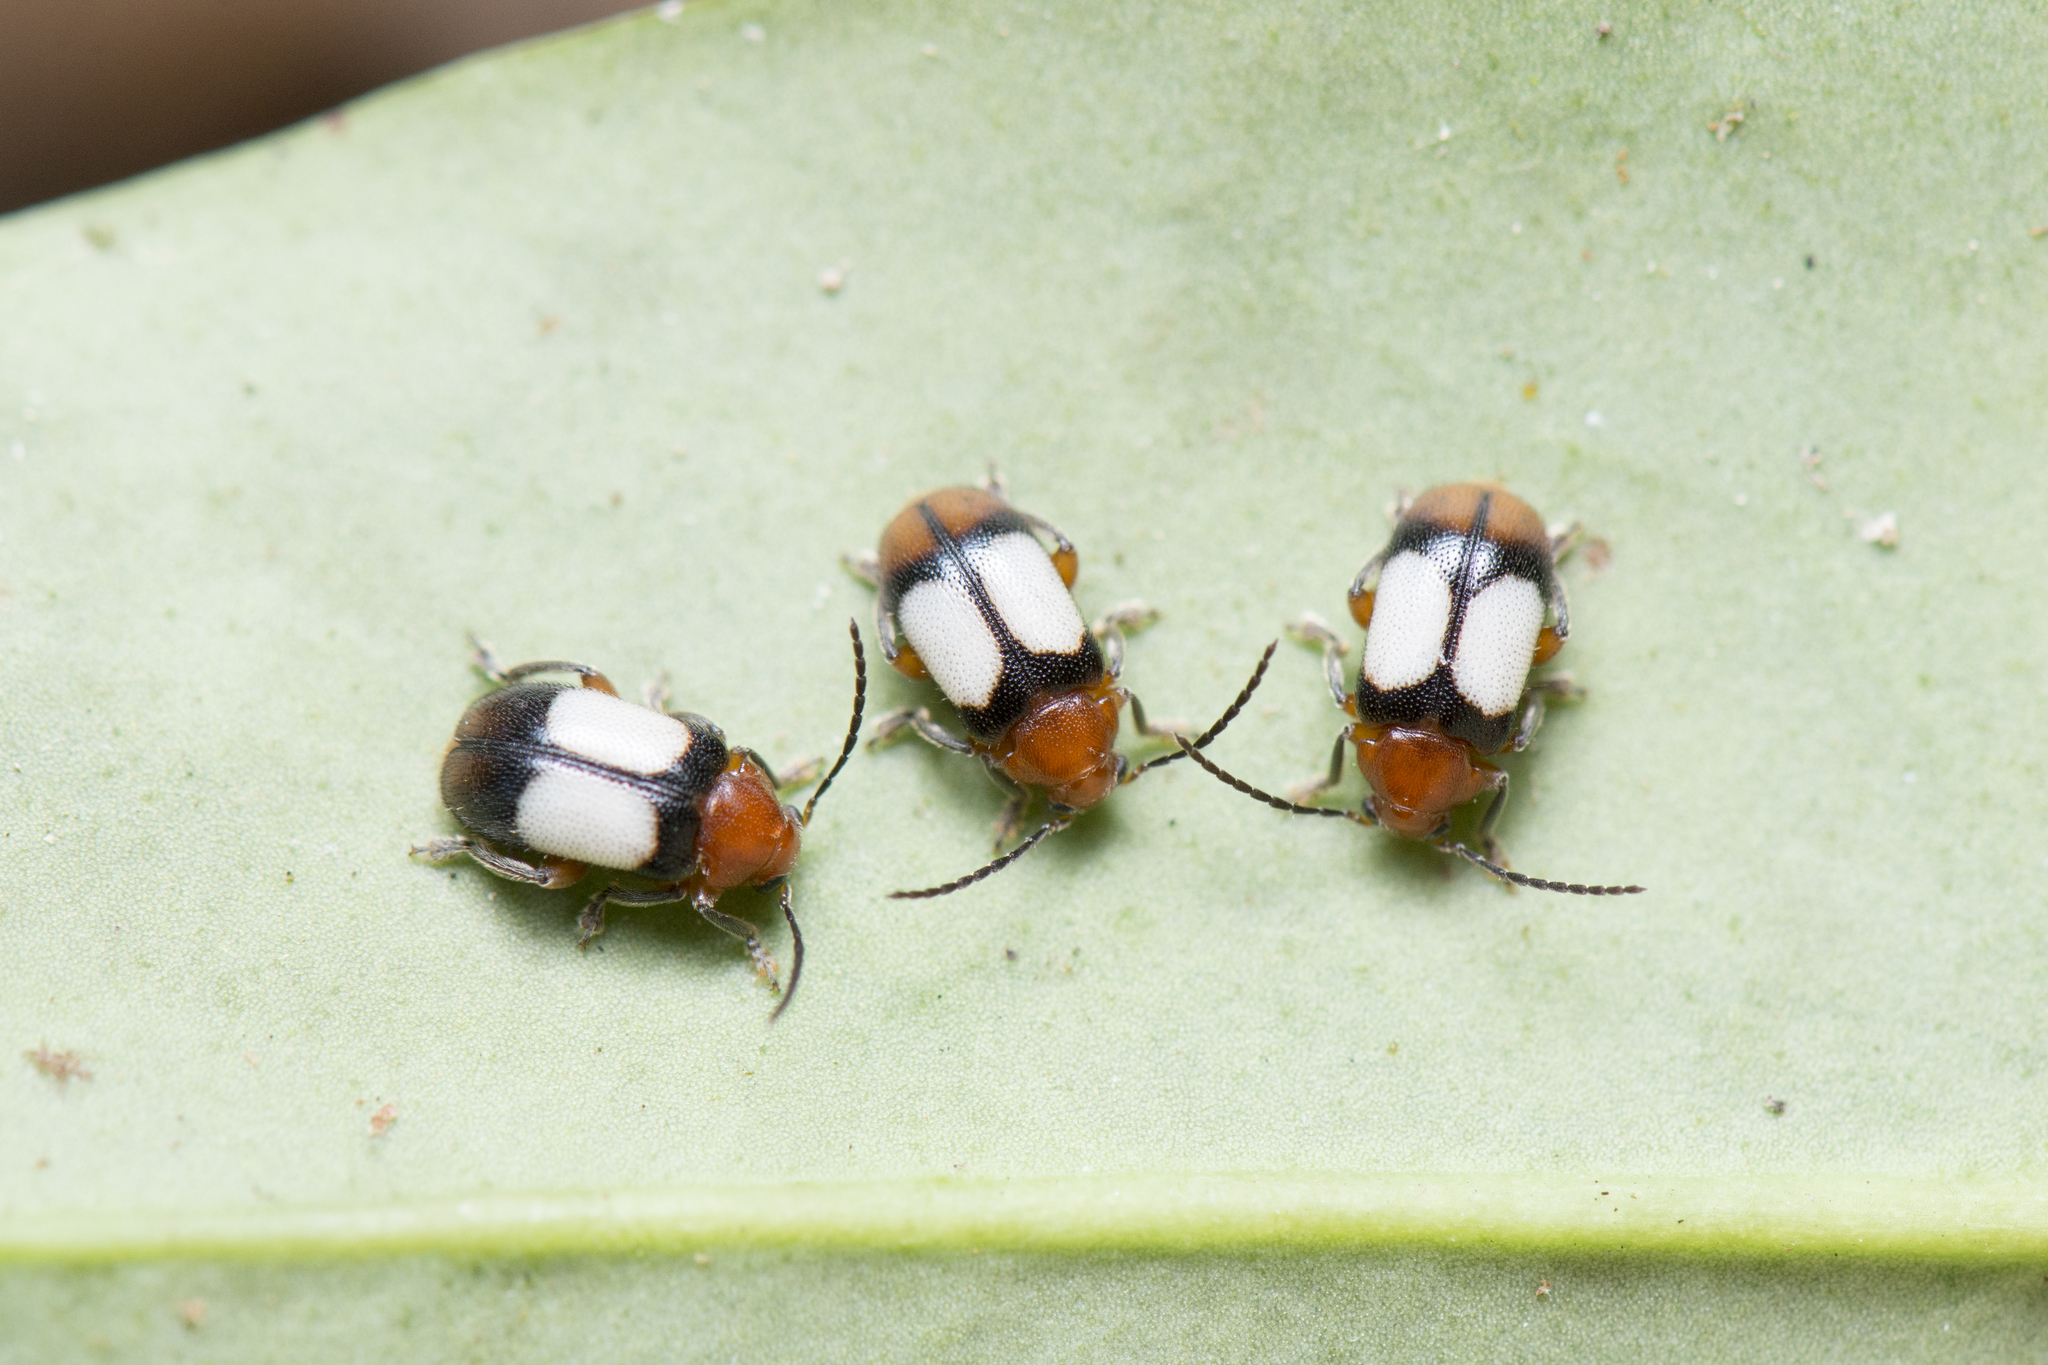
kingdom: Animalia
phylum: Arthropoda
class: Insecta
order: Coleoptera
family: Megalopodidae
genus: Zeugophora
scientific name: Zeugophora flavonotata
